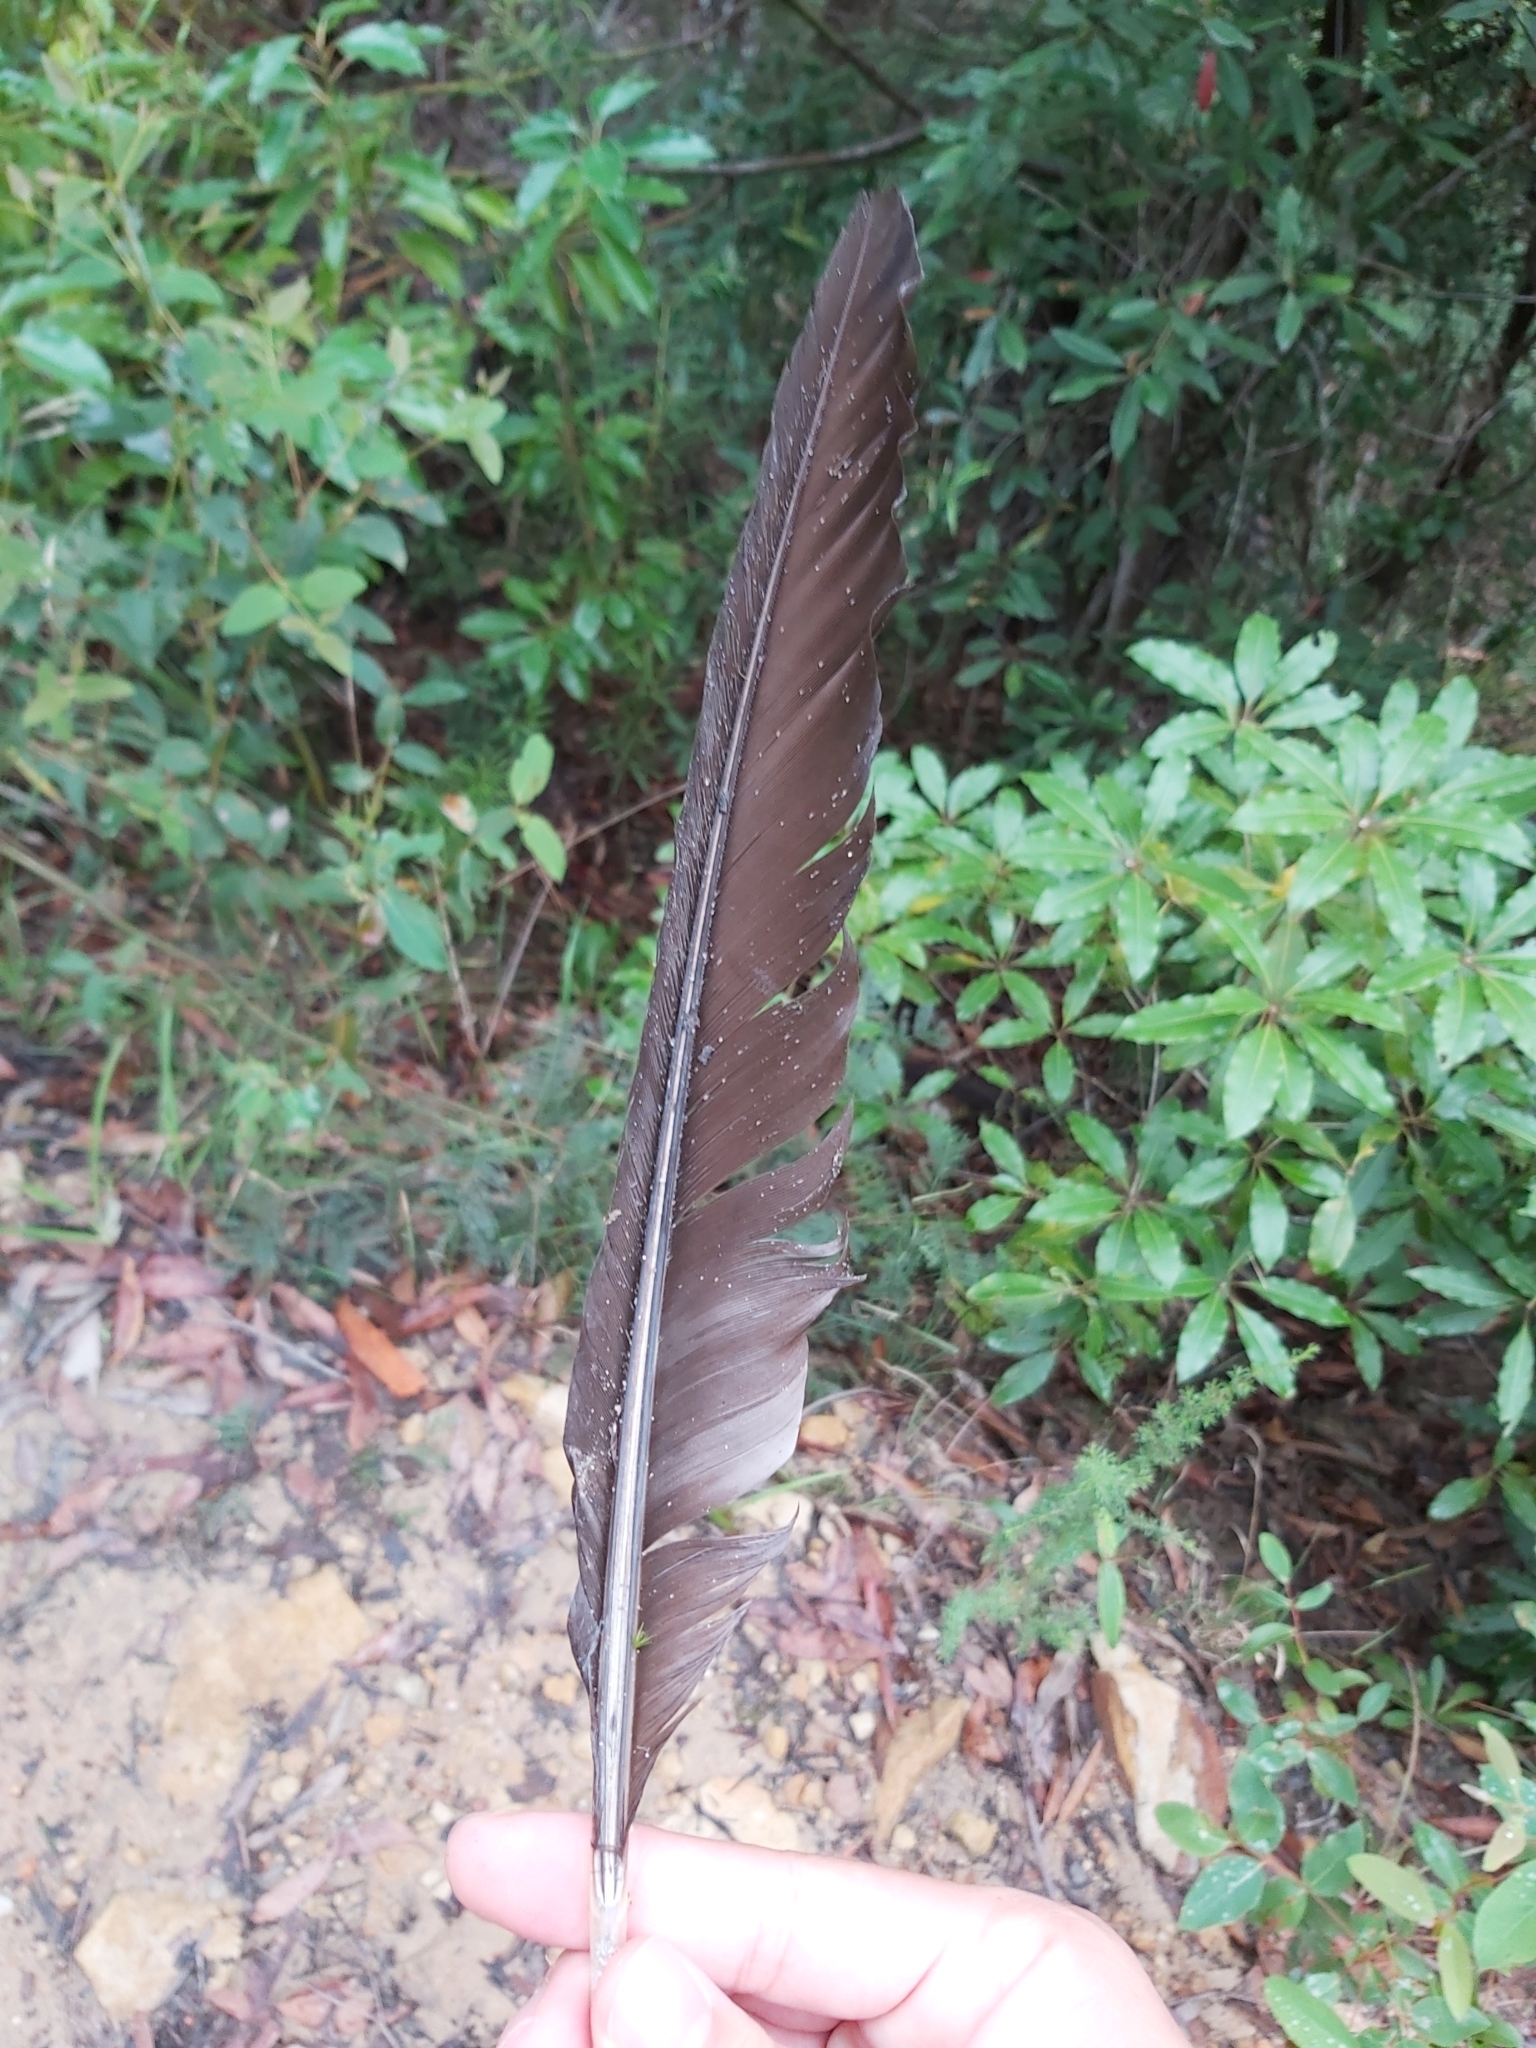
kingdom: Animalia
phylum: Chordata
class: Aves
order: Galliformes
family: Megapodiidae
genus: Alectura
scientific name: Alectura lathami
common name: Australian brushturkey
